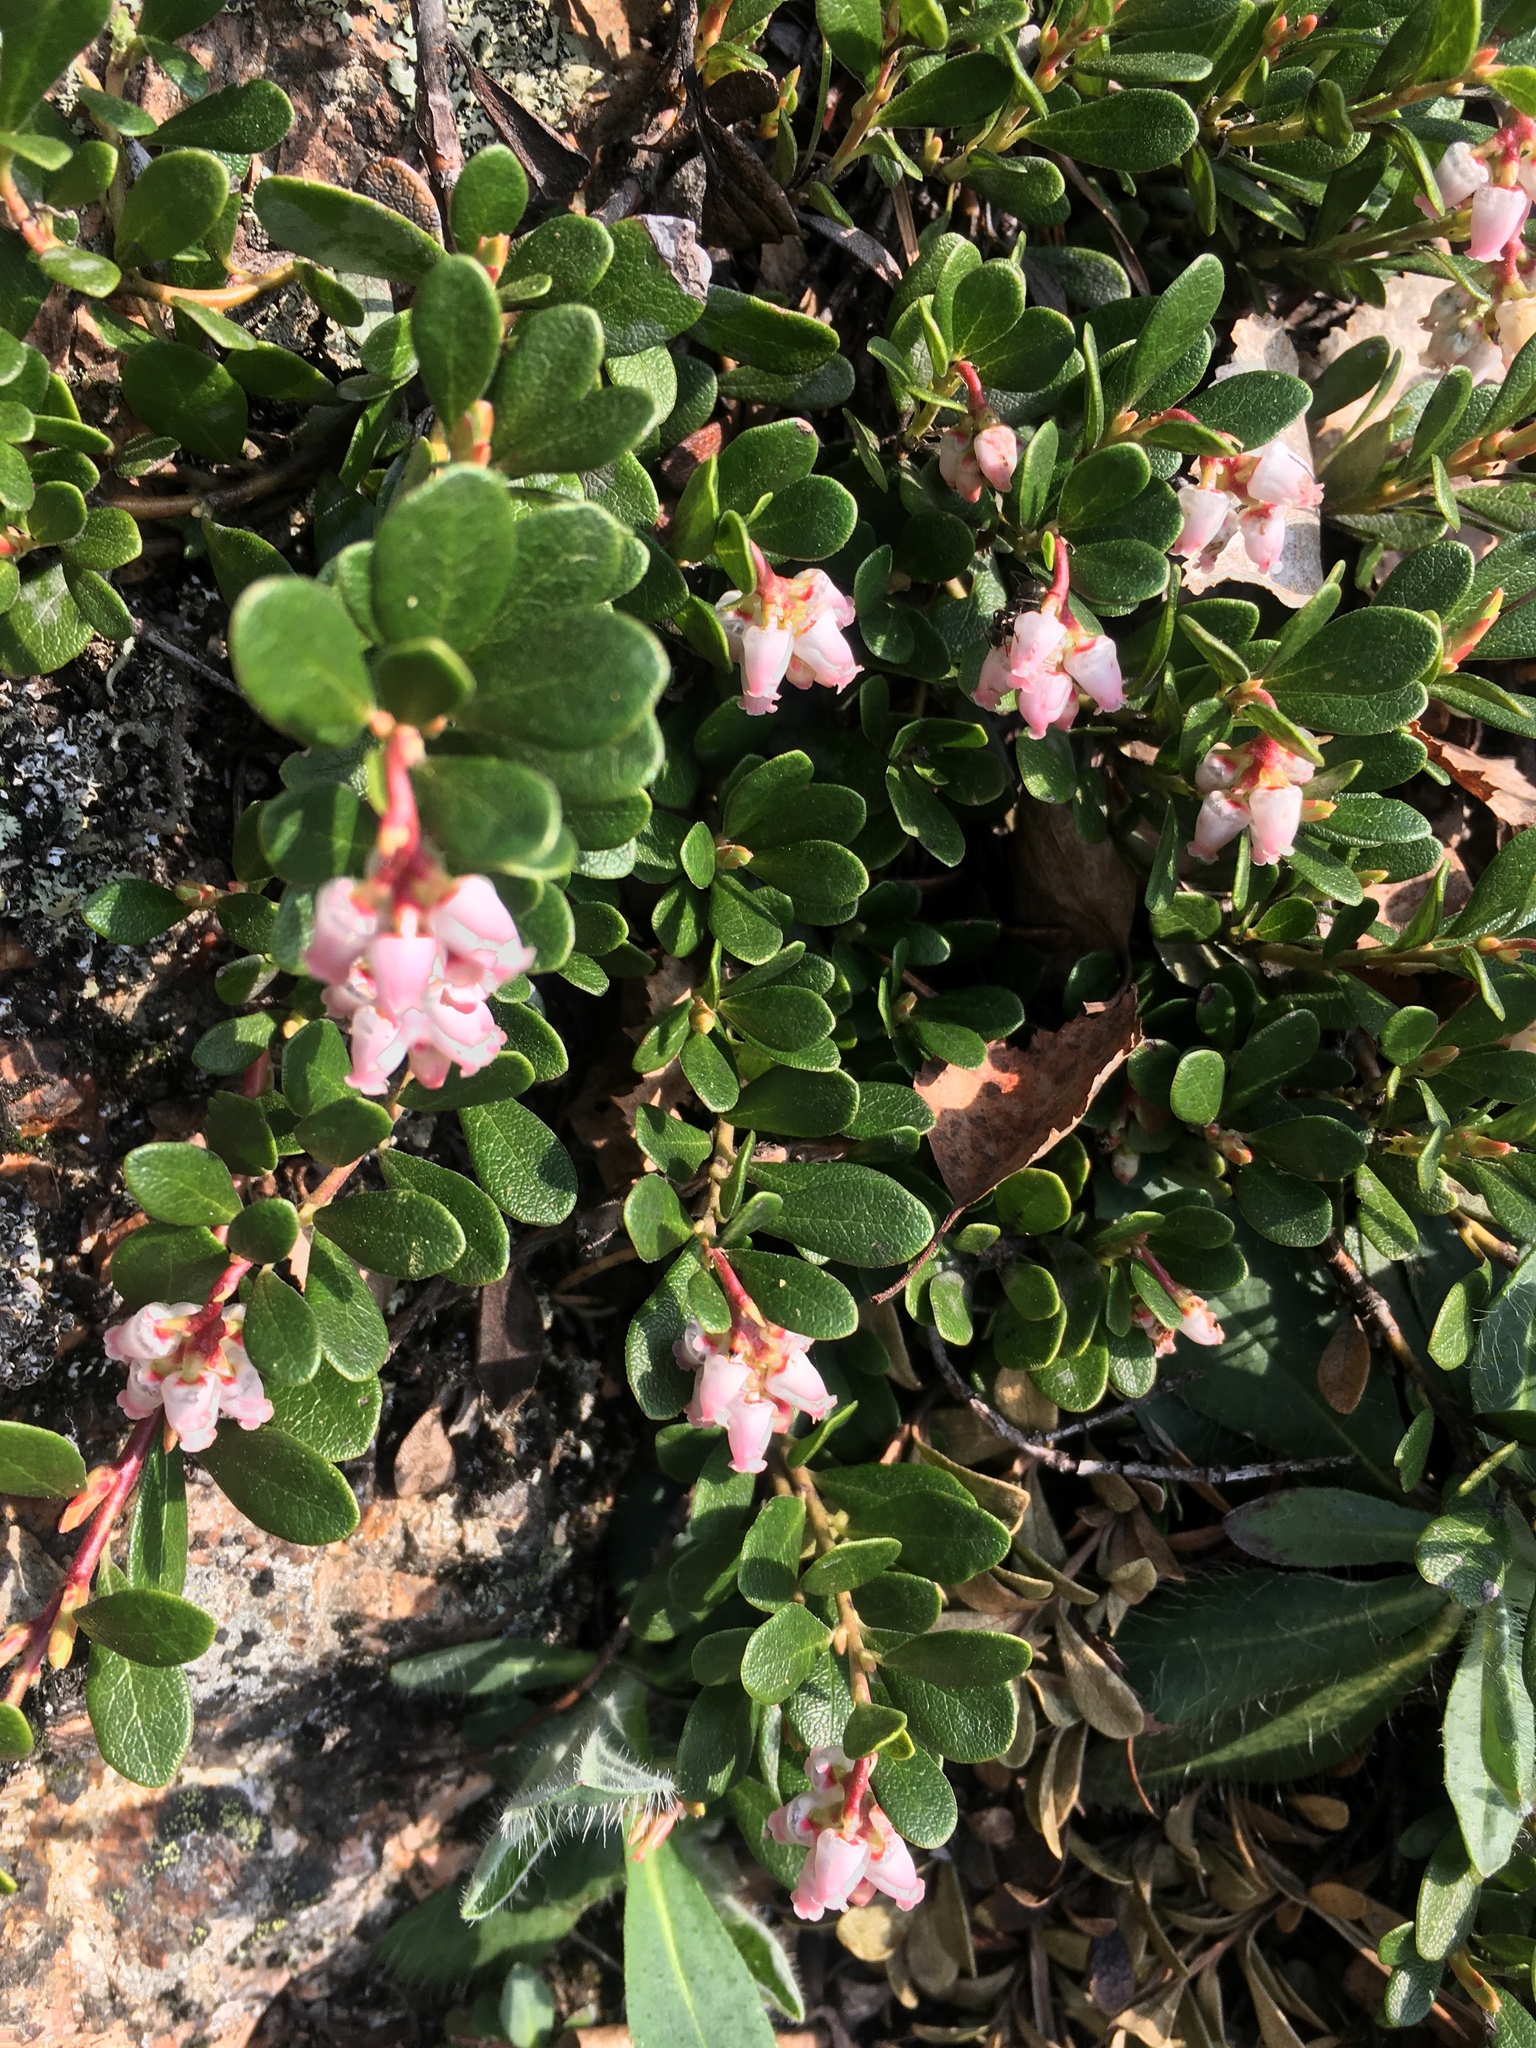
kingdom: Plantae
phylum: Tracheophyta
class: Magnoliopsida
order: Ericales
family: Ericaceae
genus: Arctostaphylos
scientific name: Arctostaphylos uva-ursi
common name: Bearberry
